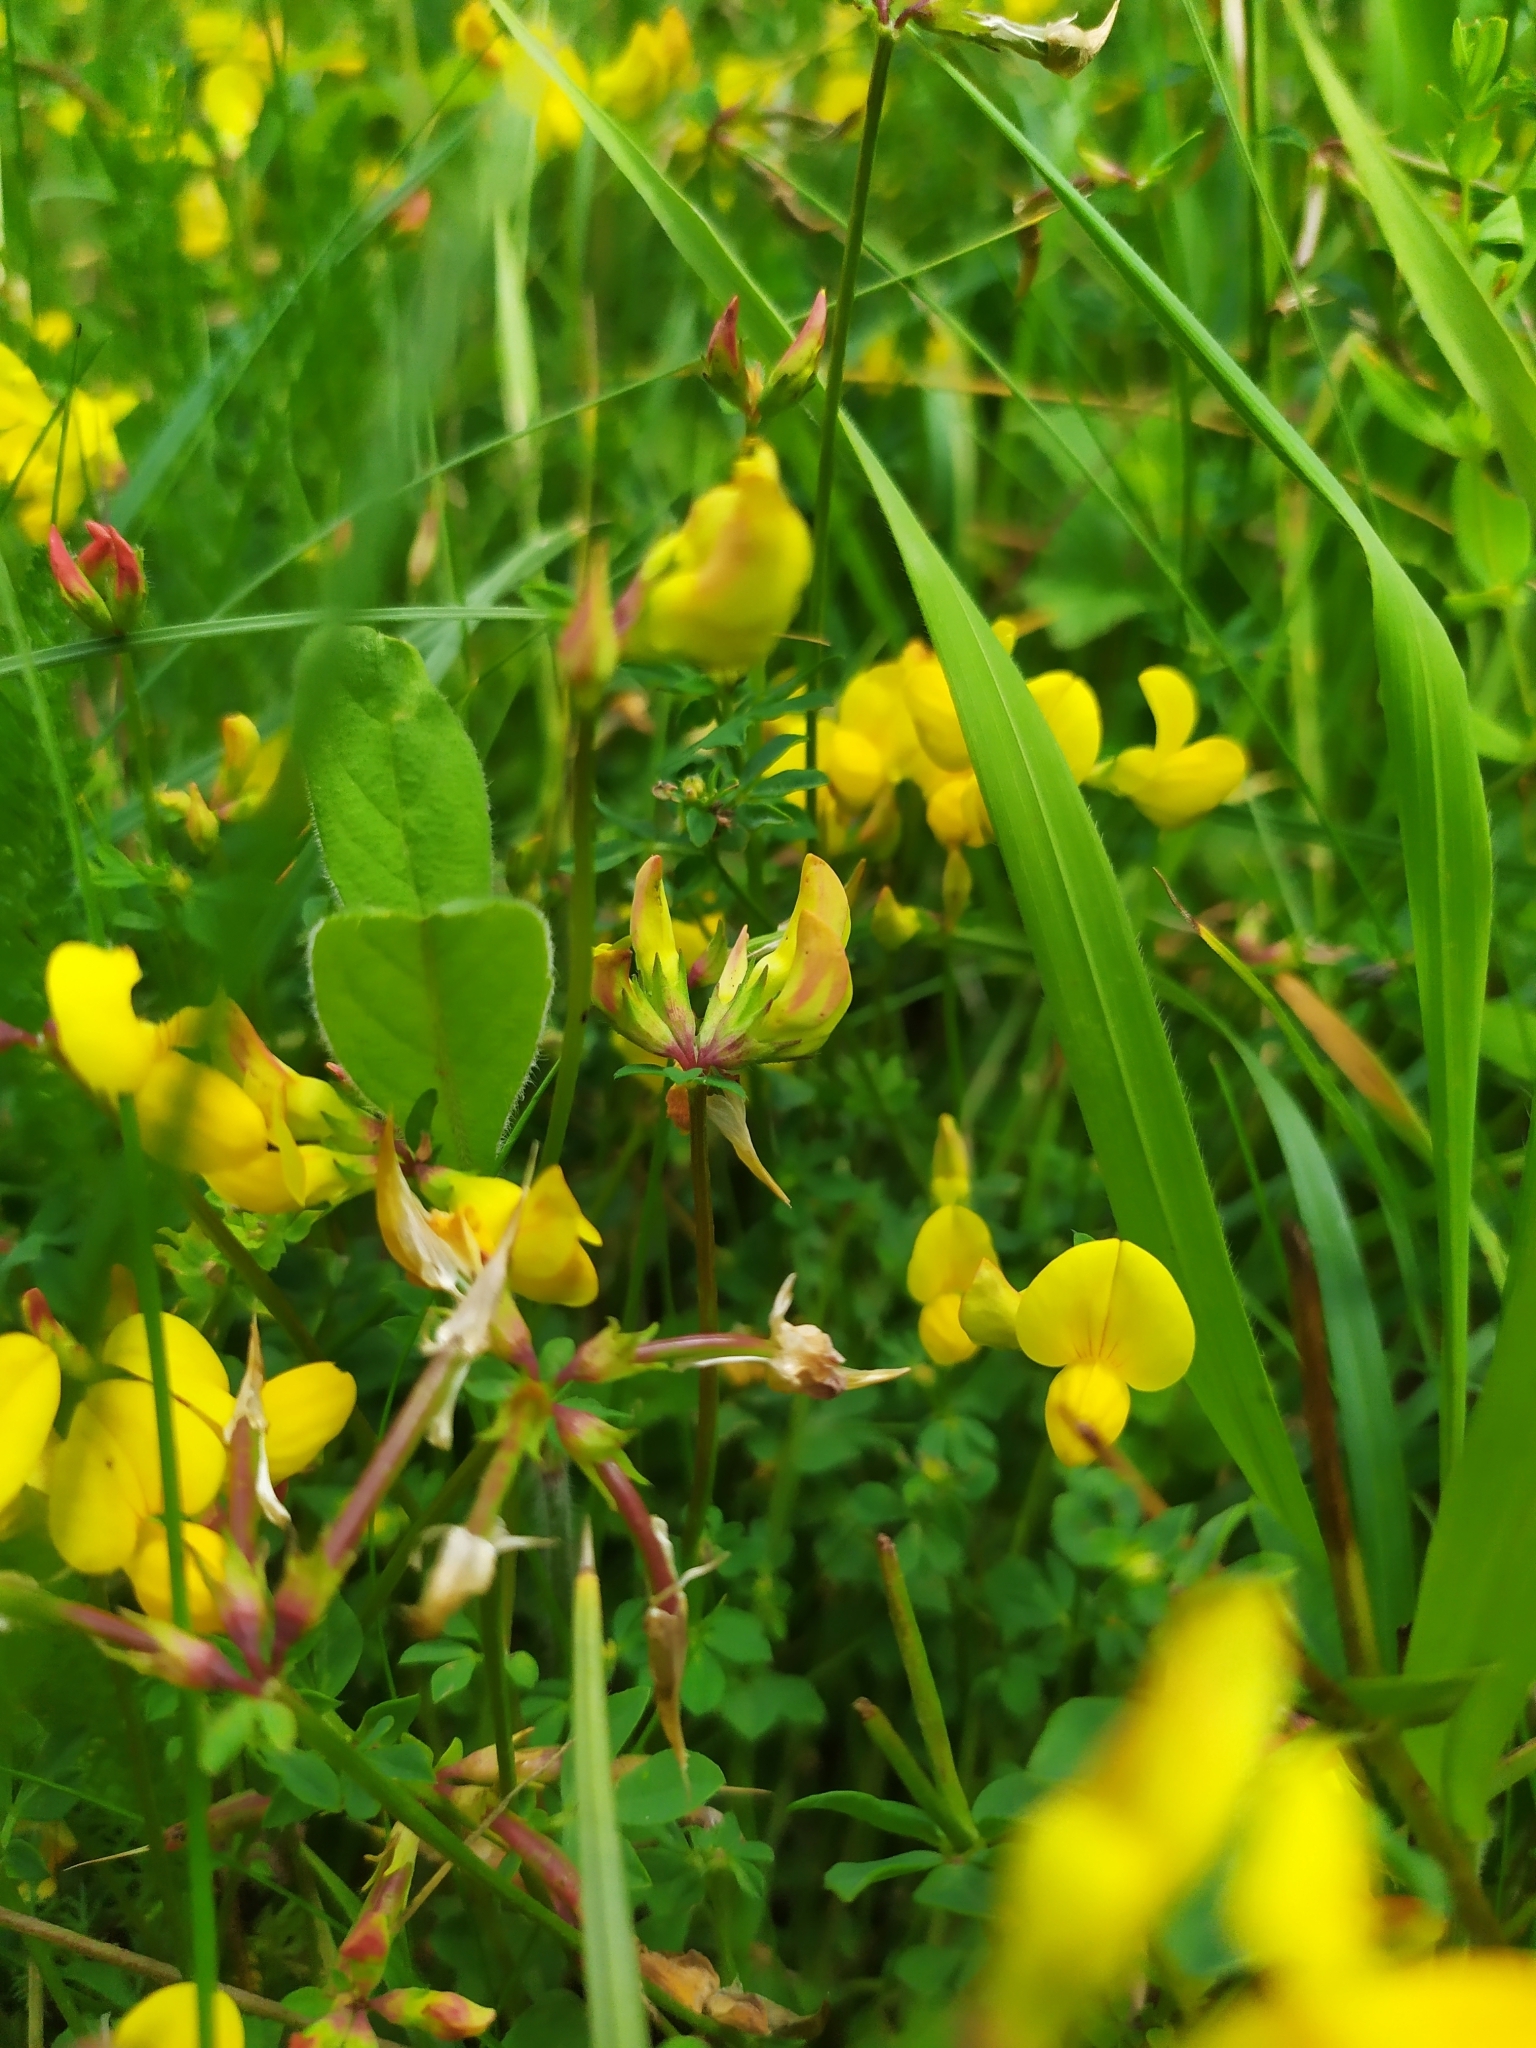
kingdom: Plantae
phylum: Tracheophyta
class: Magnoliopsida
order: Fabales
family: Fabaceae
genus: Lotus
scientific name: Lotus corniculatus
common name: Common bird's-foot-trefoil
